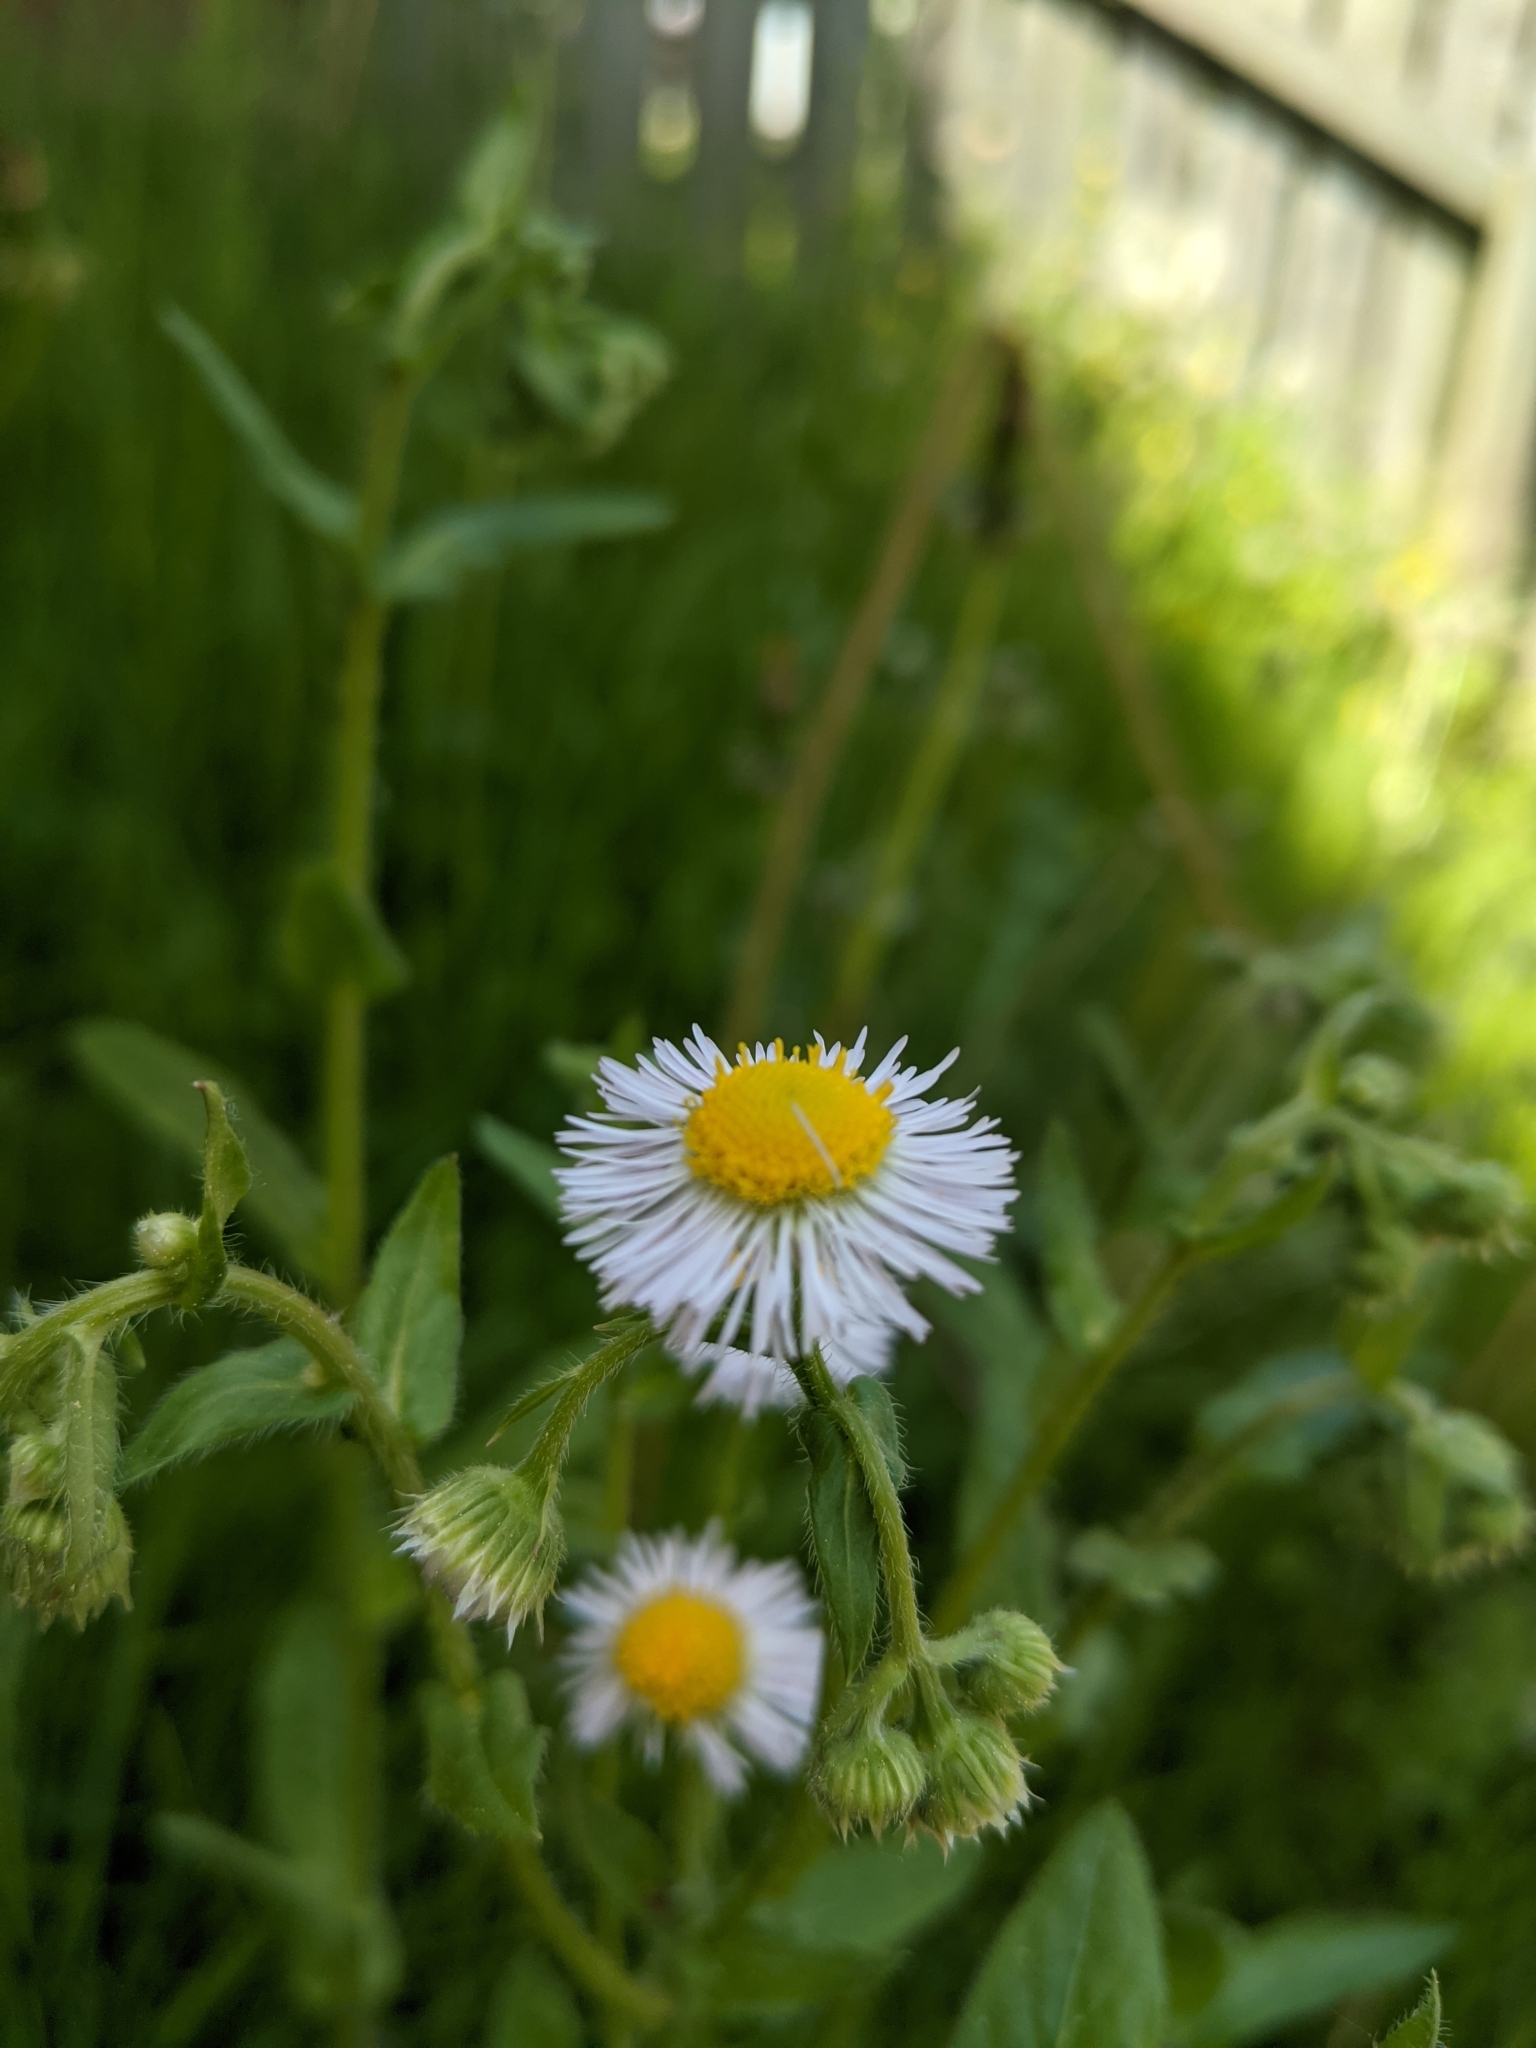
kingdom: Plantae
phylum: Tracheophyta
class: Magnoliopsida
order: Asterales
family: Asteraceae
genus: Erigeron
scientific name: Erigeron philadelphicus
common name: Robin's-plantain
